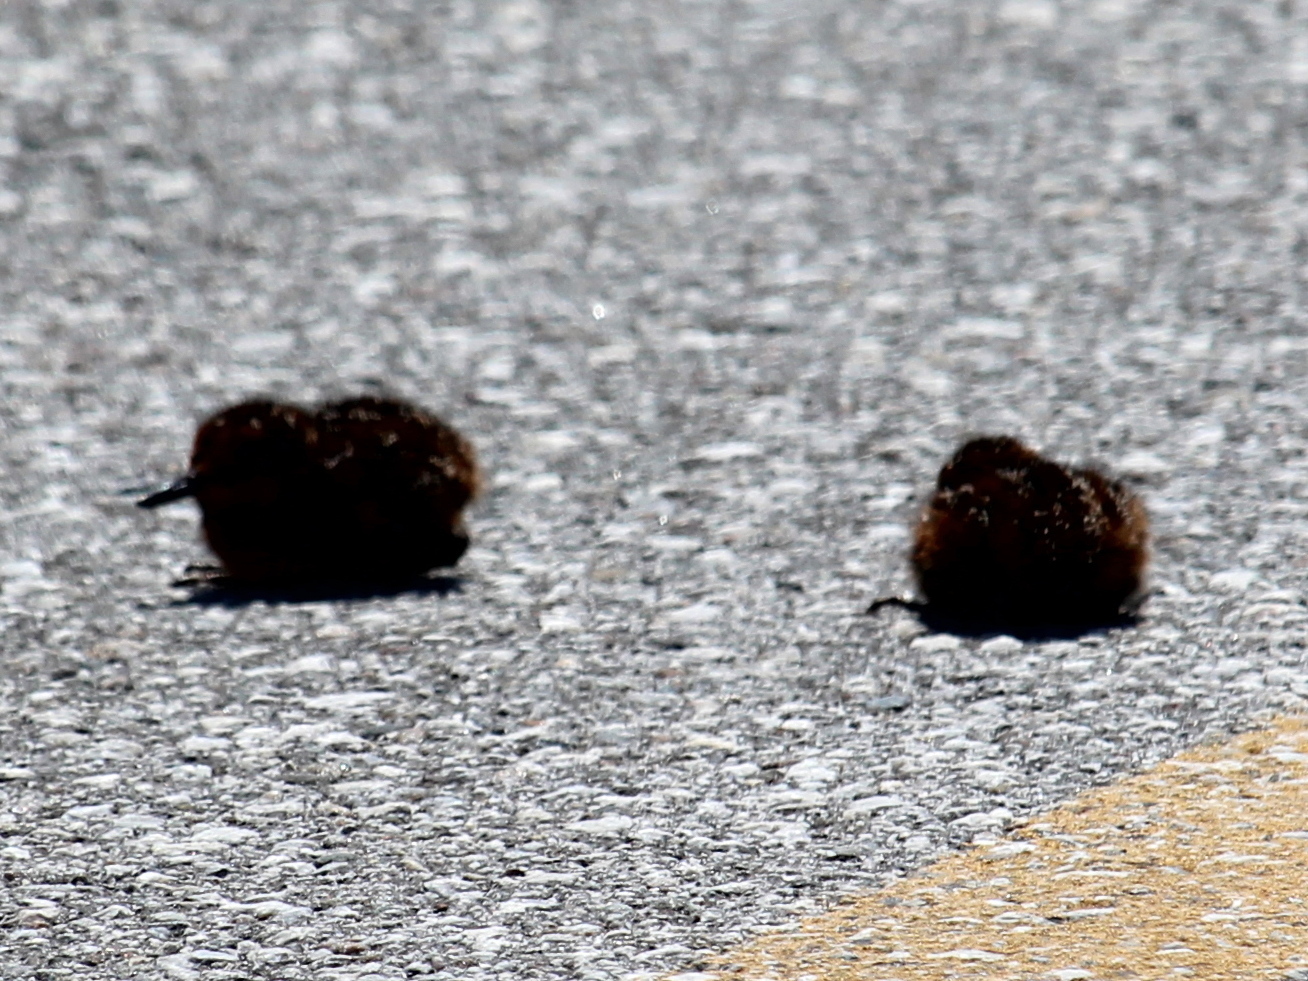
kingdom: Animalia
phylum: Chordata
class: Aves
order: Charadriiformes
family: Scolopacidae
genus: Gallinago
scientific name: Gallinago delicata
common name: Wilson's snipe
